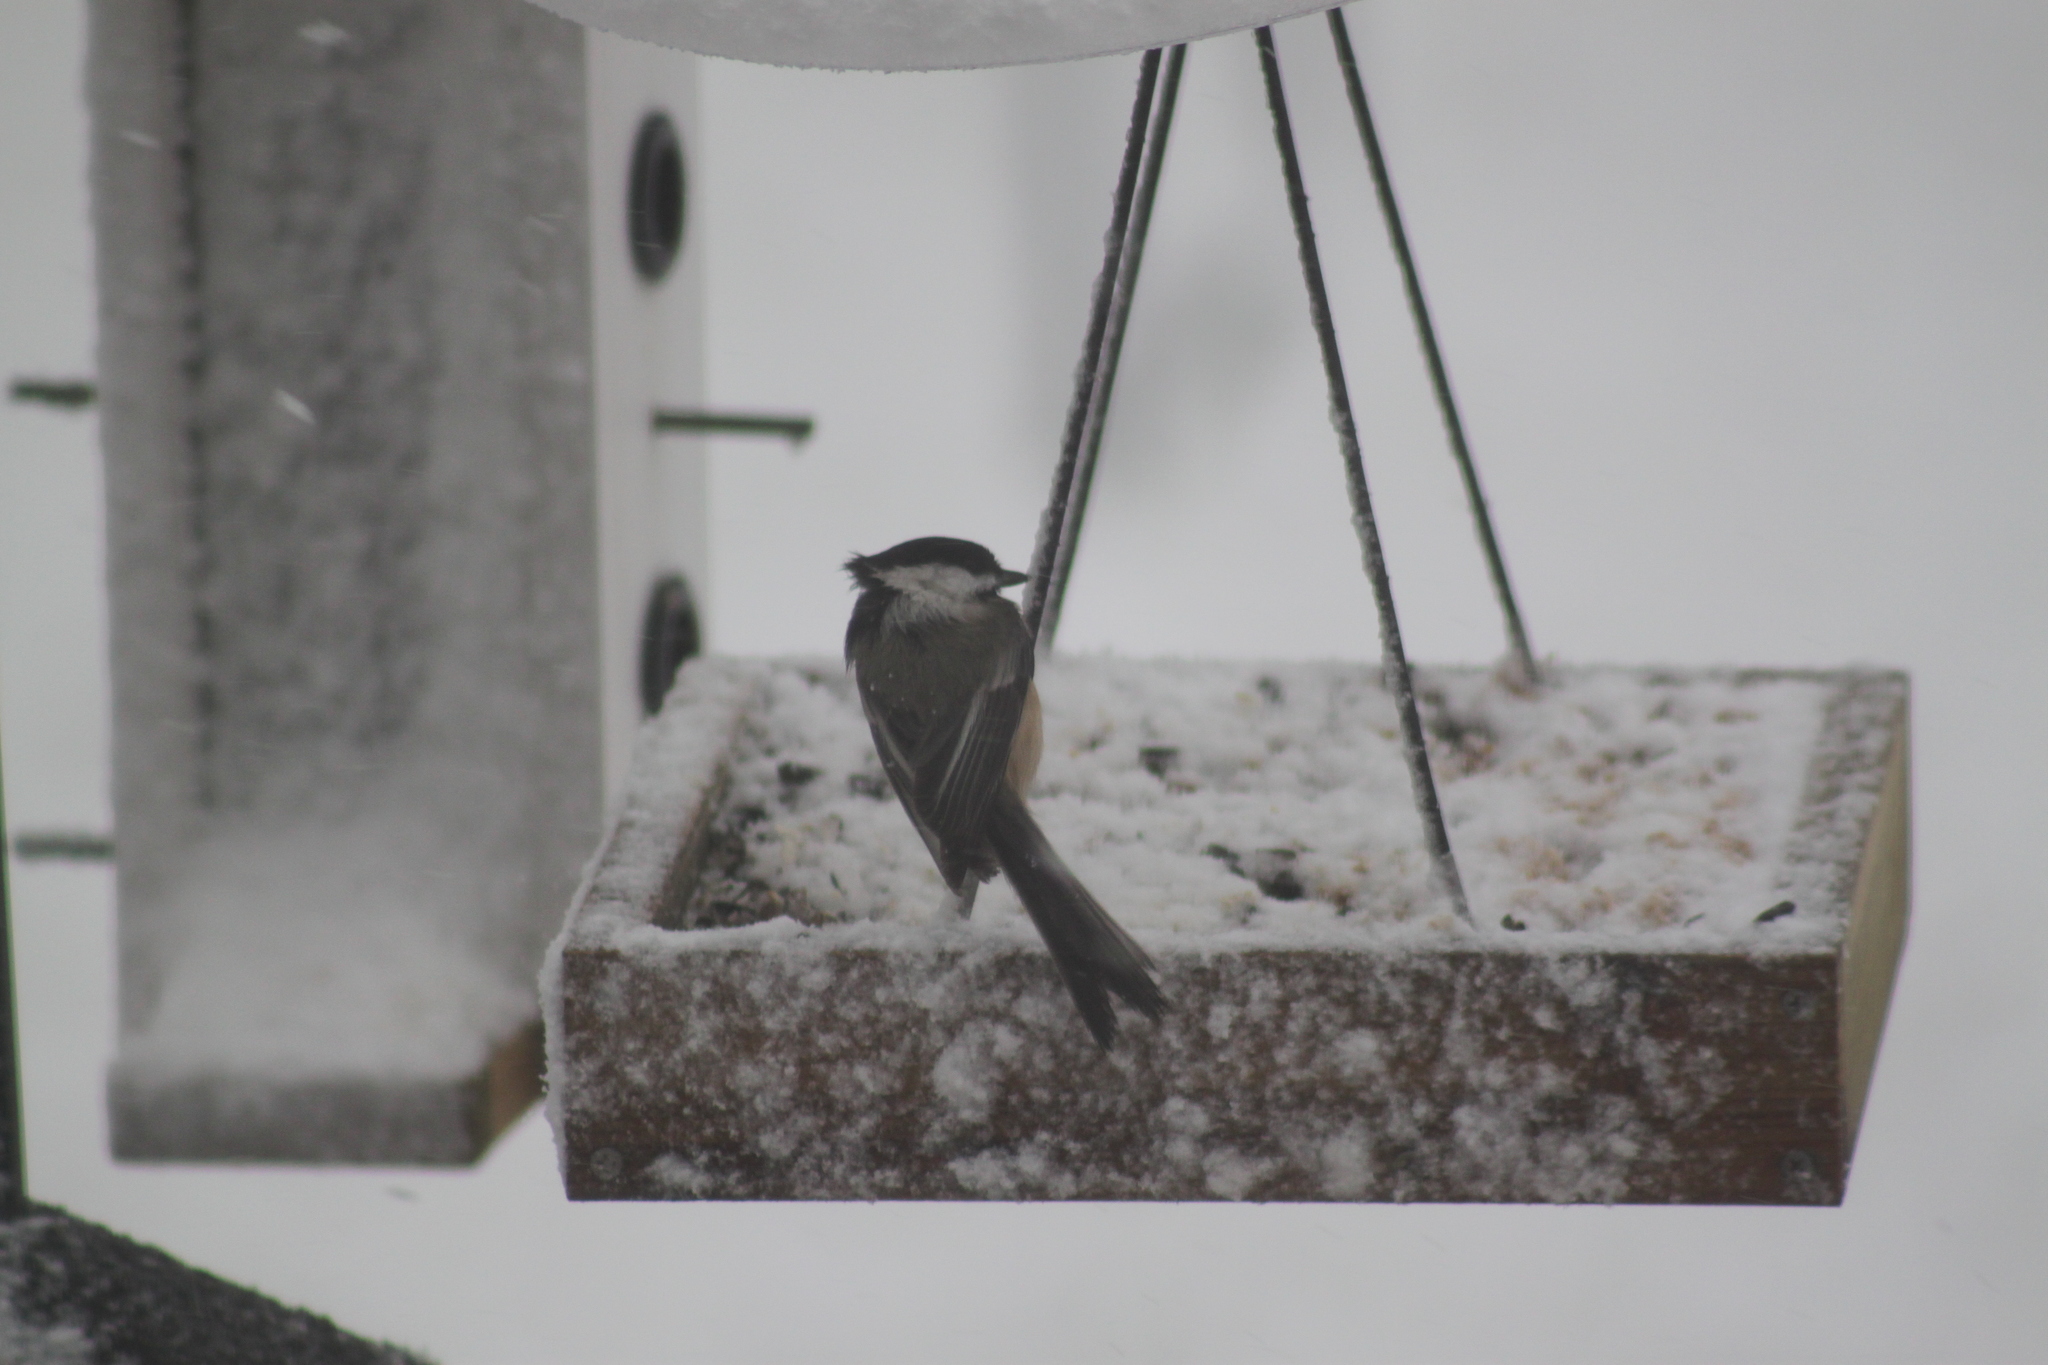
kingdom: Animalia
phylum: Chordata
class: Aves
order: Passeriformes
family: Paridae
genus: Poecile
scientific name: Poecile atricapillus
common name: Black-capped chickadee
